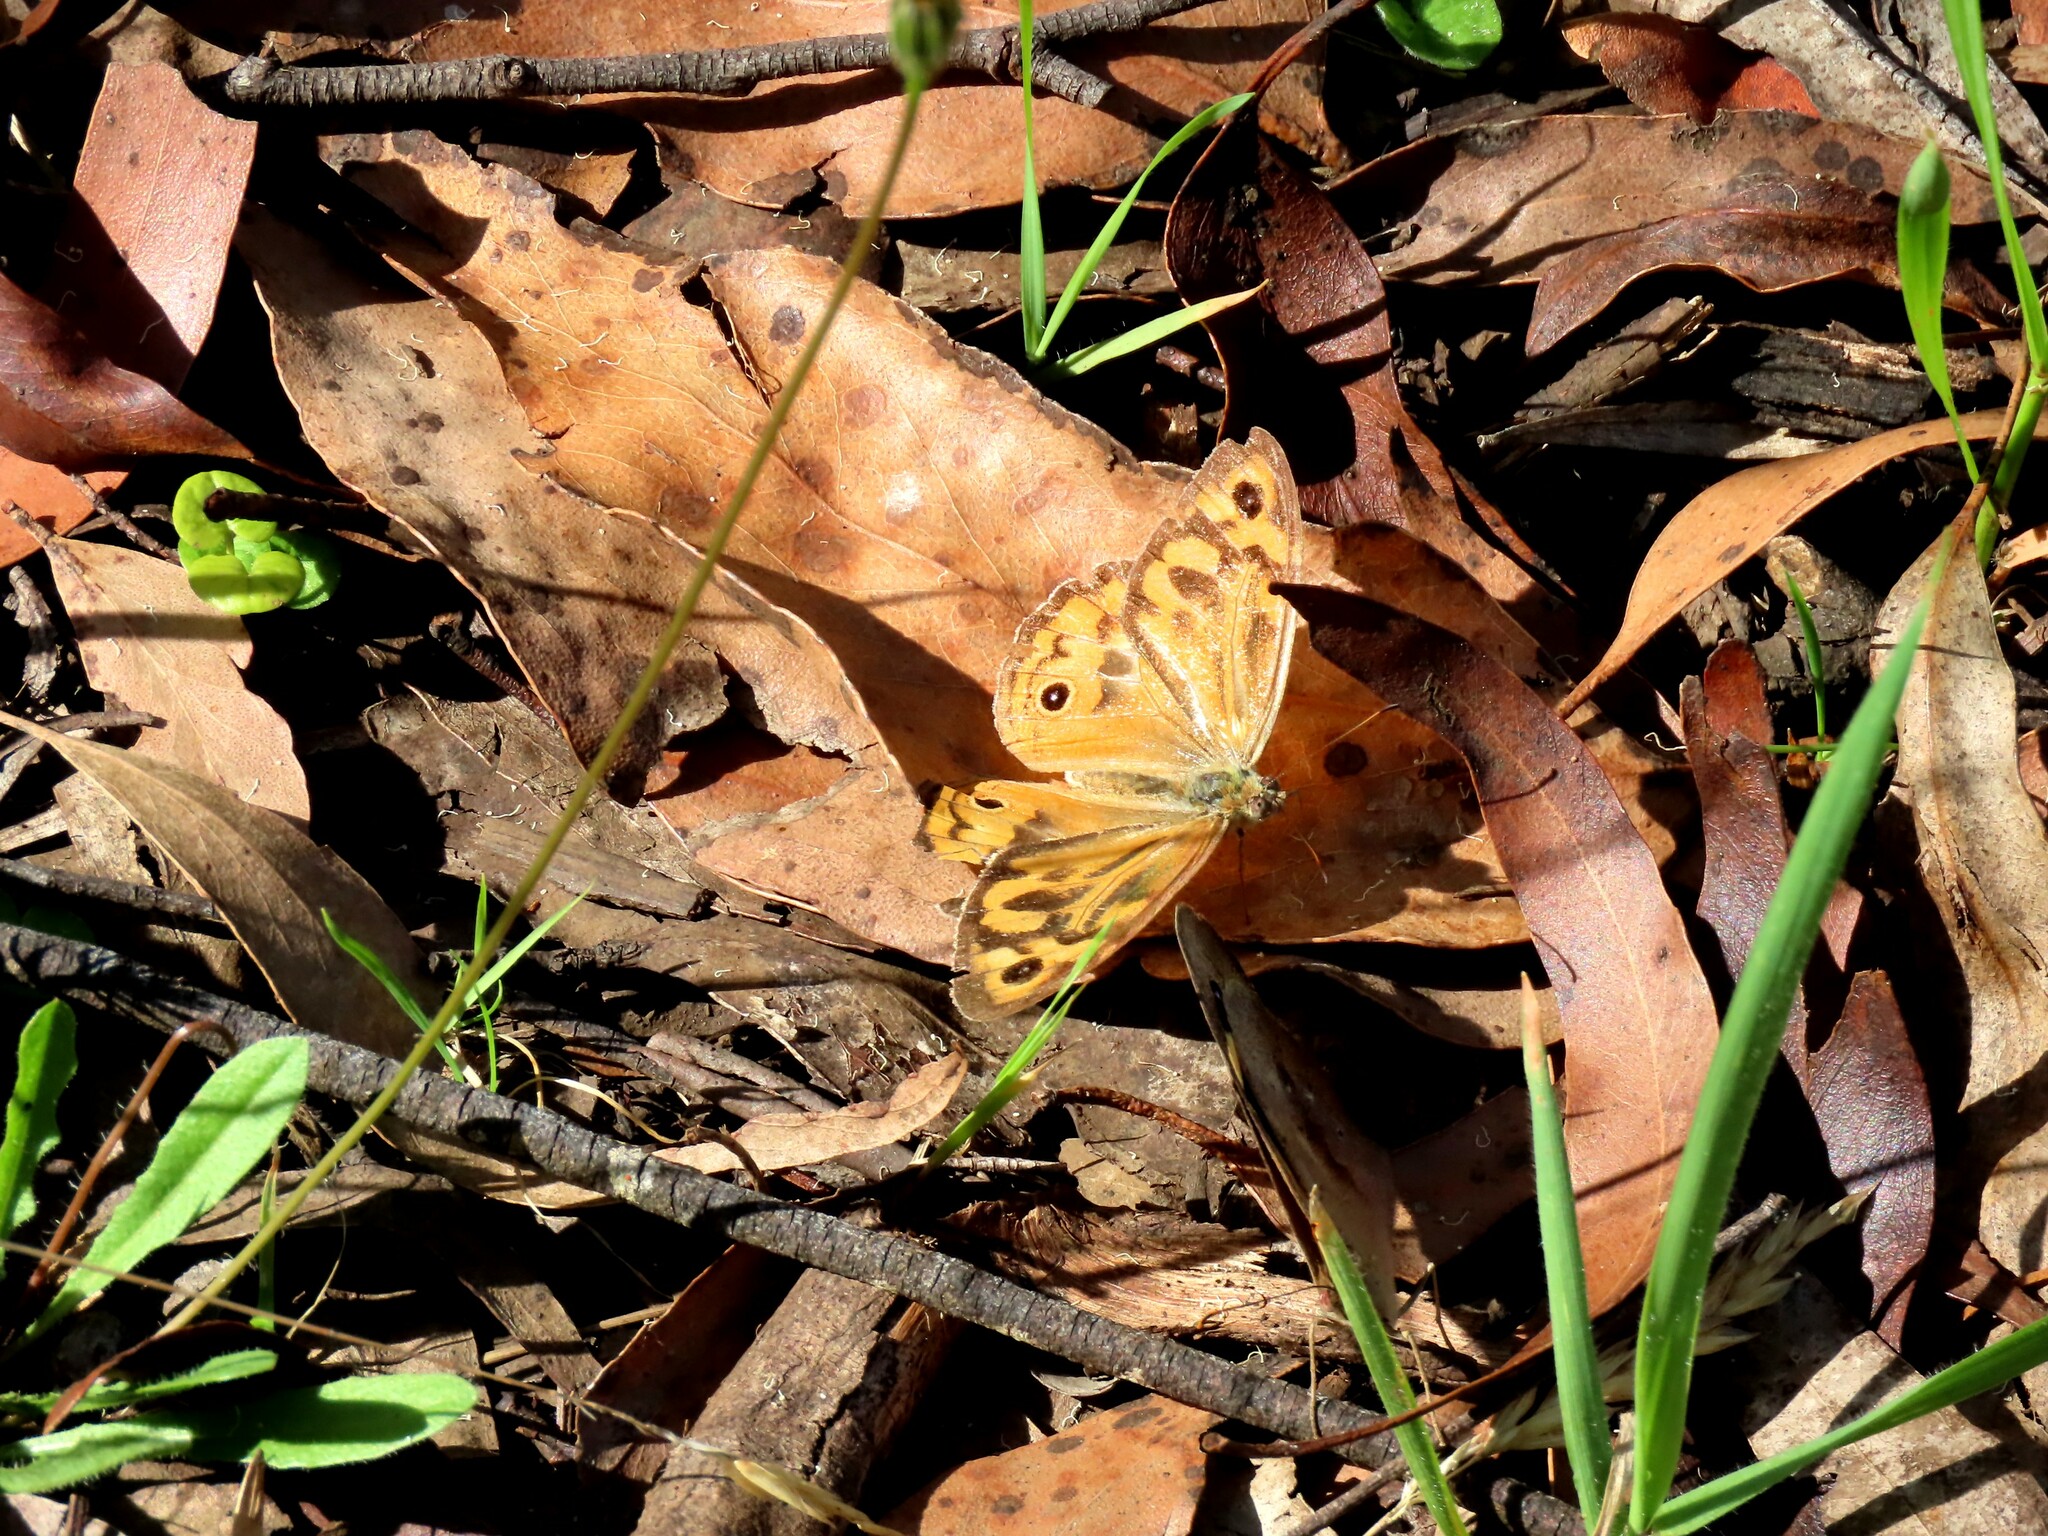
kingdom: Animalia
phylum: Arthropoda
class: Insecta
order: Lepidoptera
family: Nymphalidae
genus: Heteronympha
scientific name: Heteronympha merope
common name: Common brown
